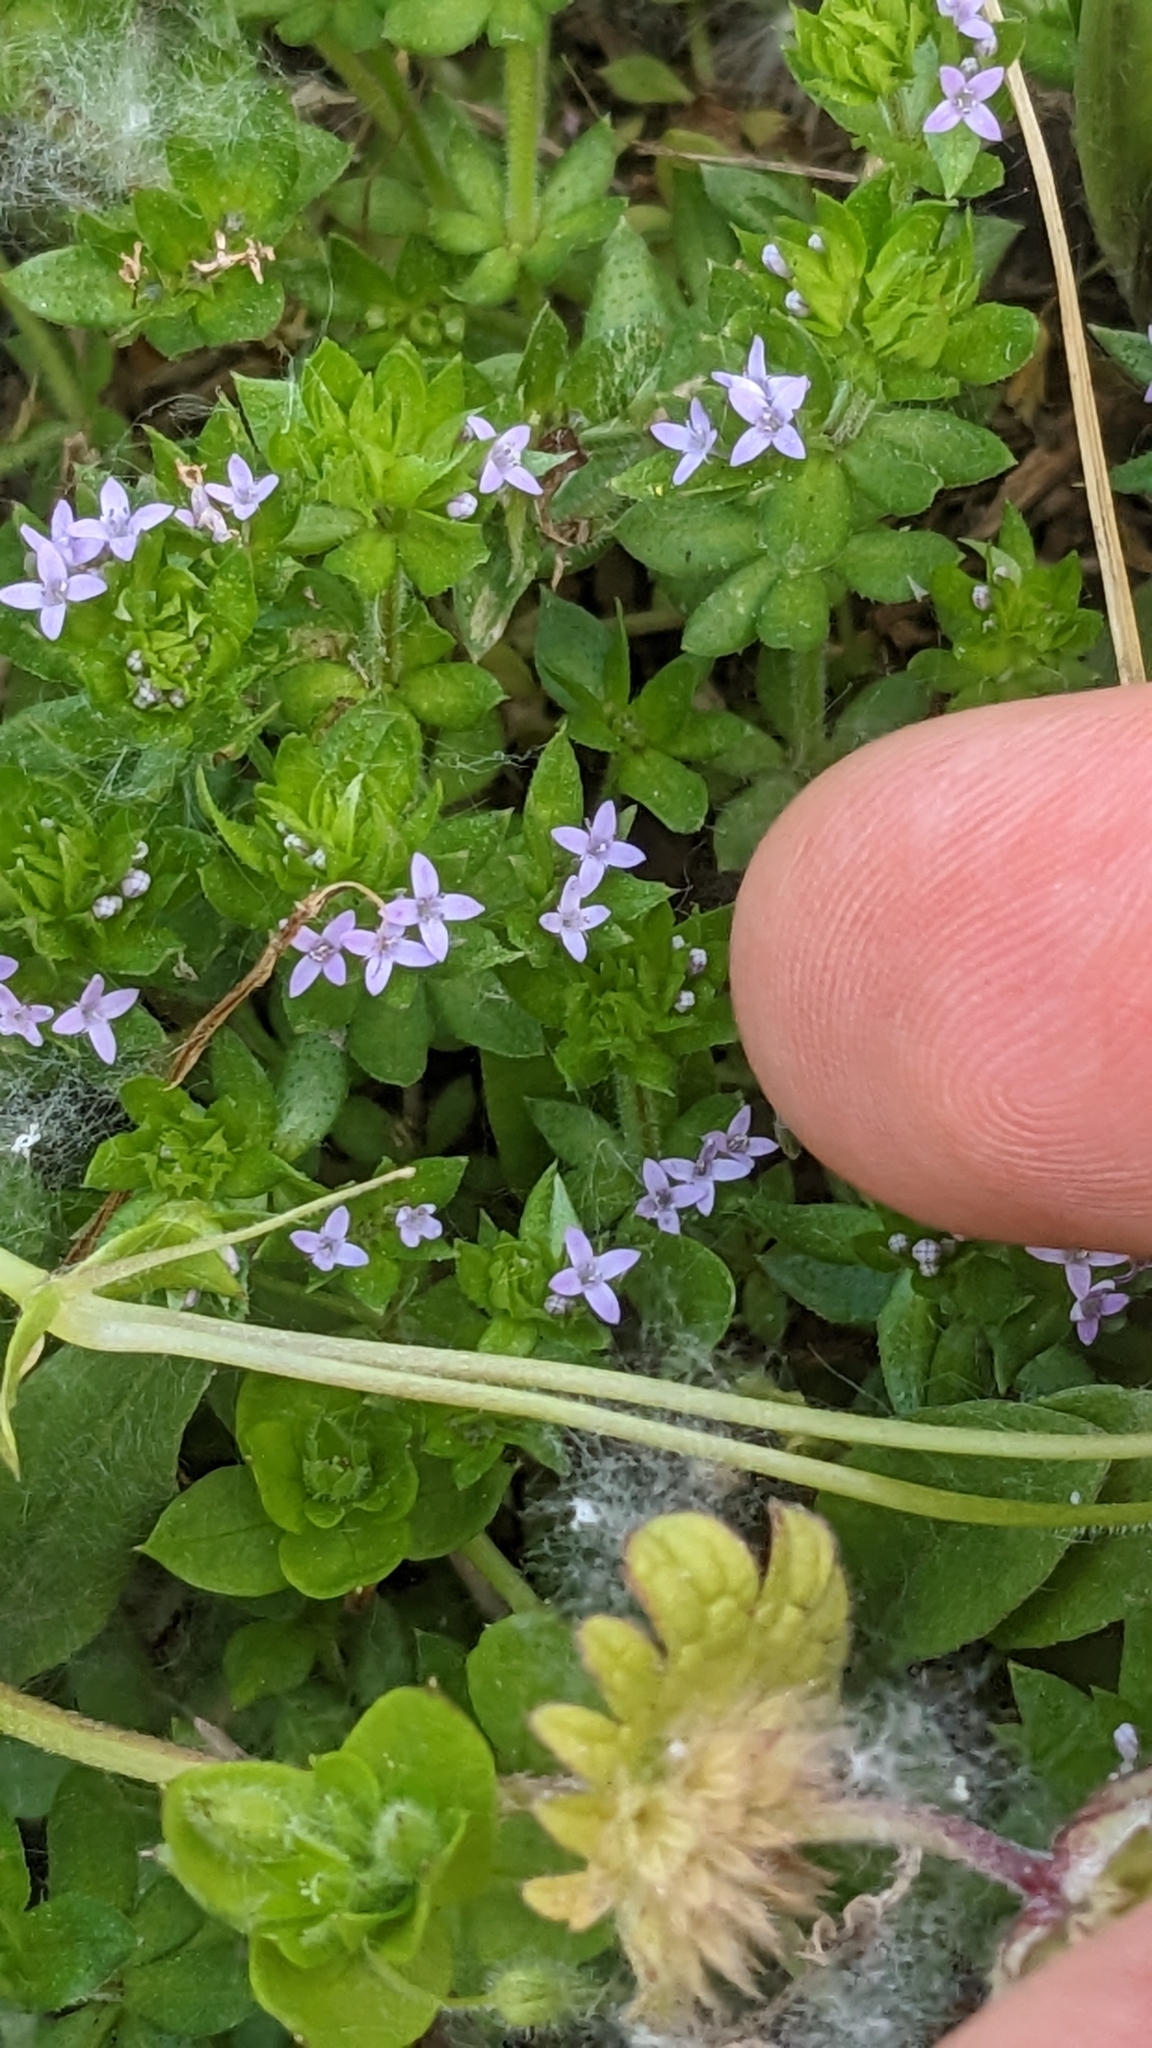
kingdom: Plantae
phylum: Tracheophyta
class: Magnoliopsida
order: Gentianales
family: Rubiaceae
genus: Sherardia
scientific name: Sherardia arvensis
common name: Field madder
